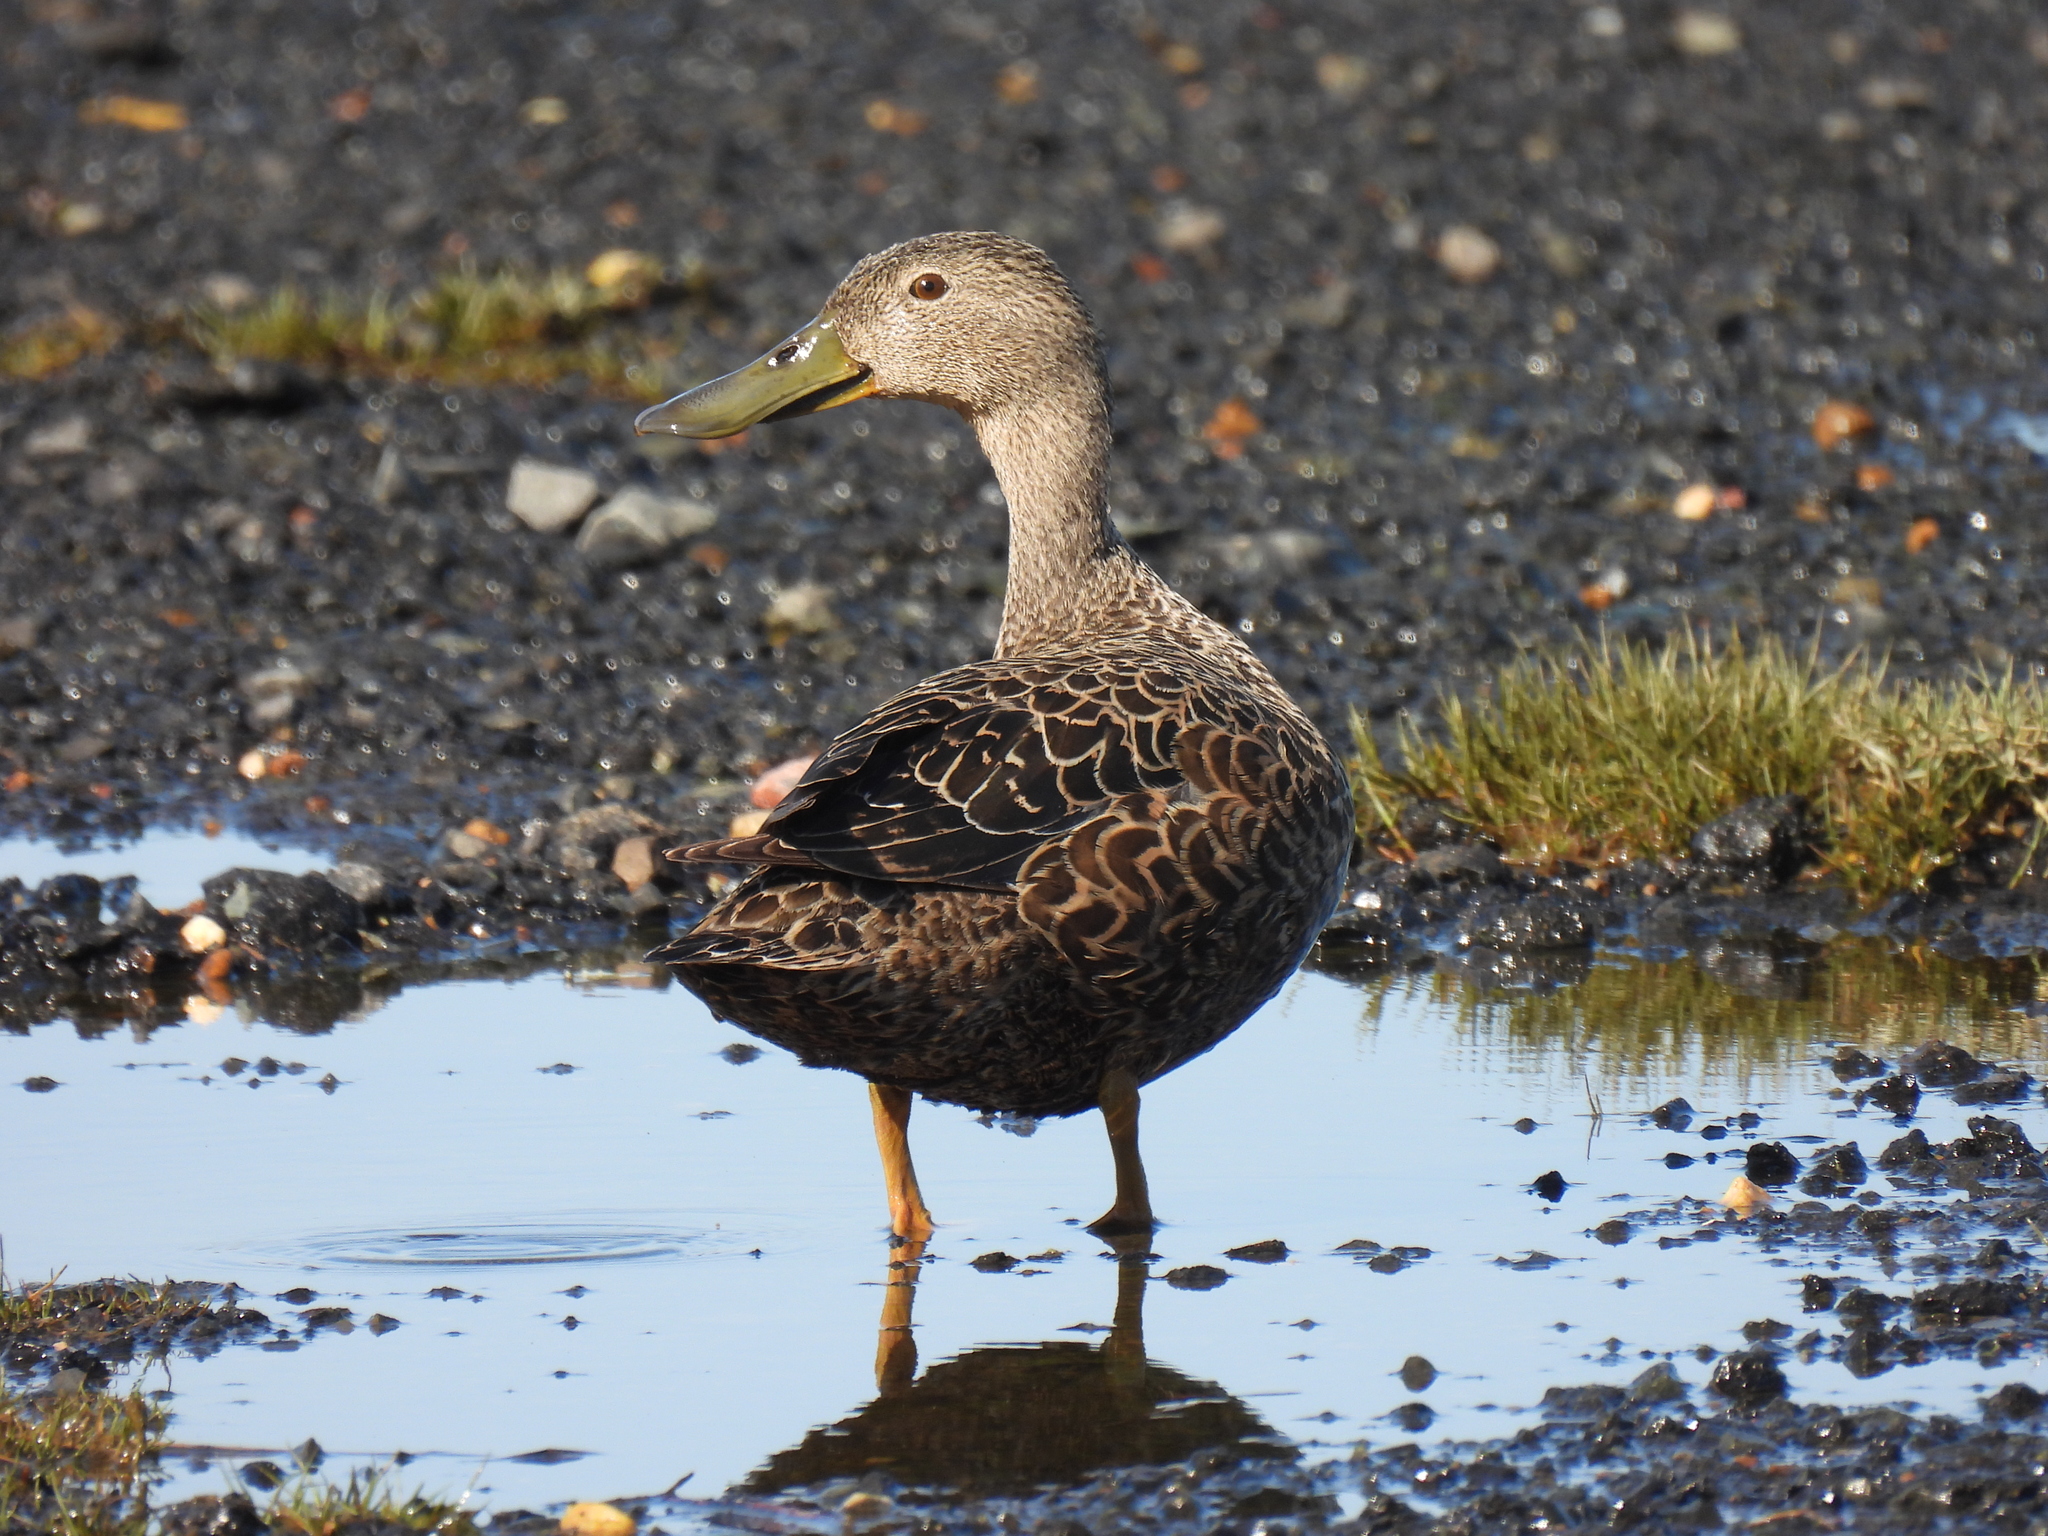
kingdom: Animalia
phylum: Chordata
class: Aves
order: Anseriformes
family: Anatidae
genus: Spatula
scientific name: Spatula smithii
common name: Cape shoveler
